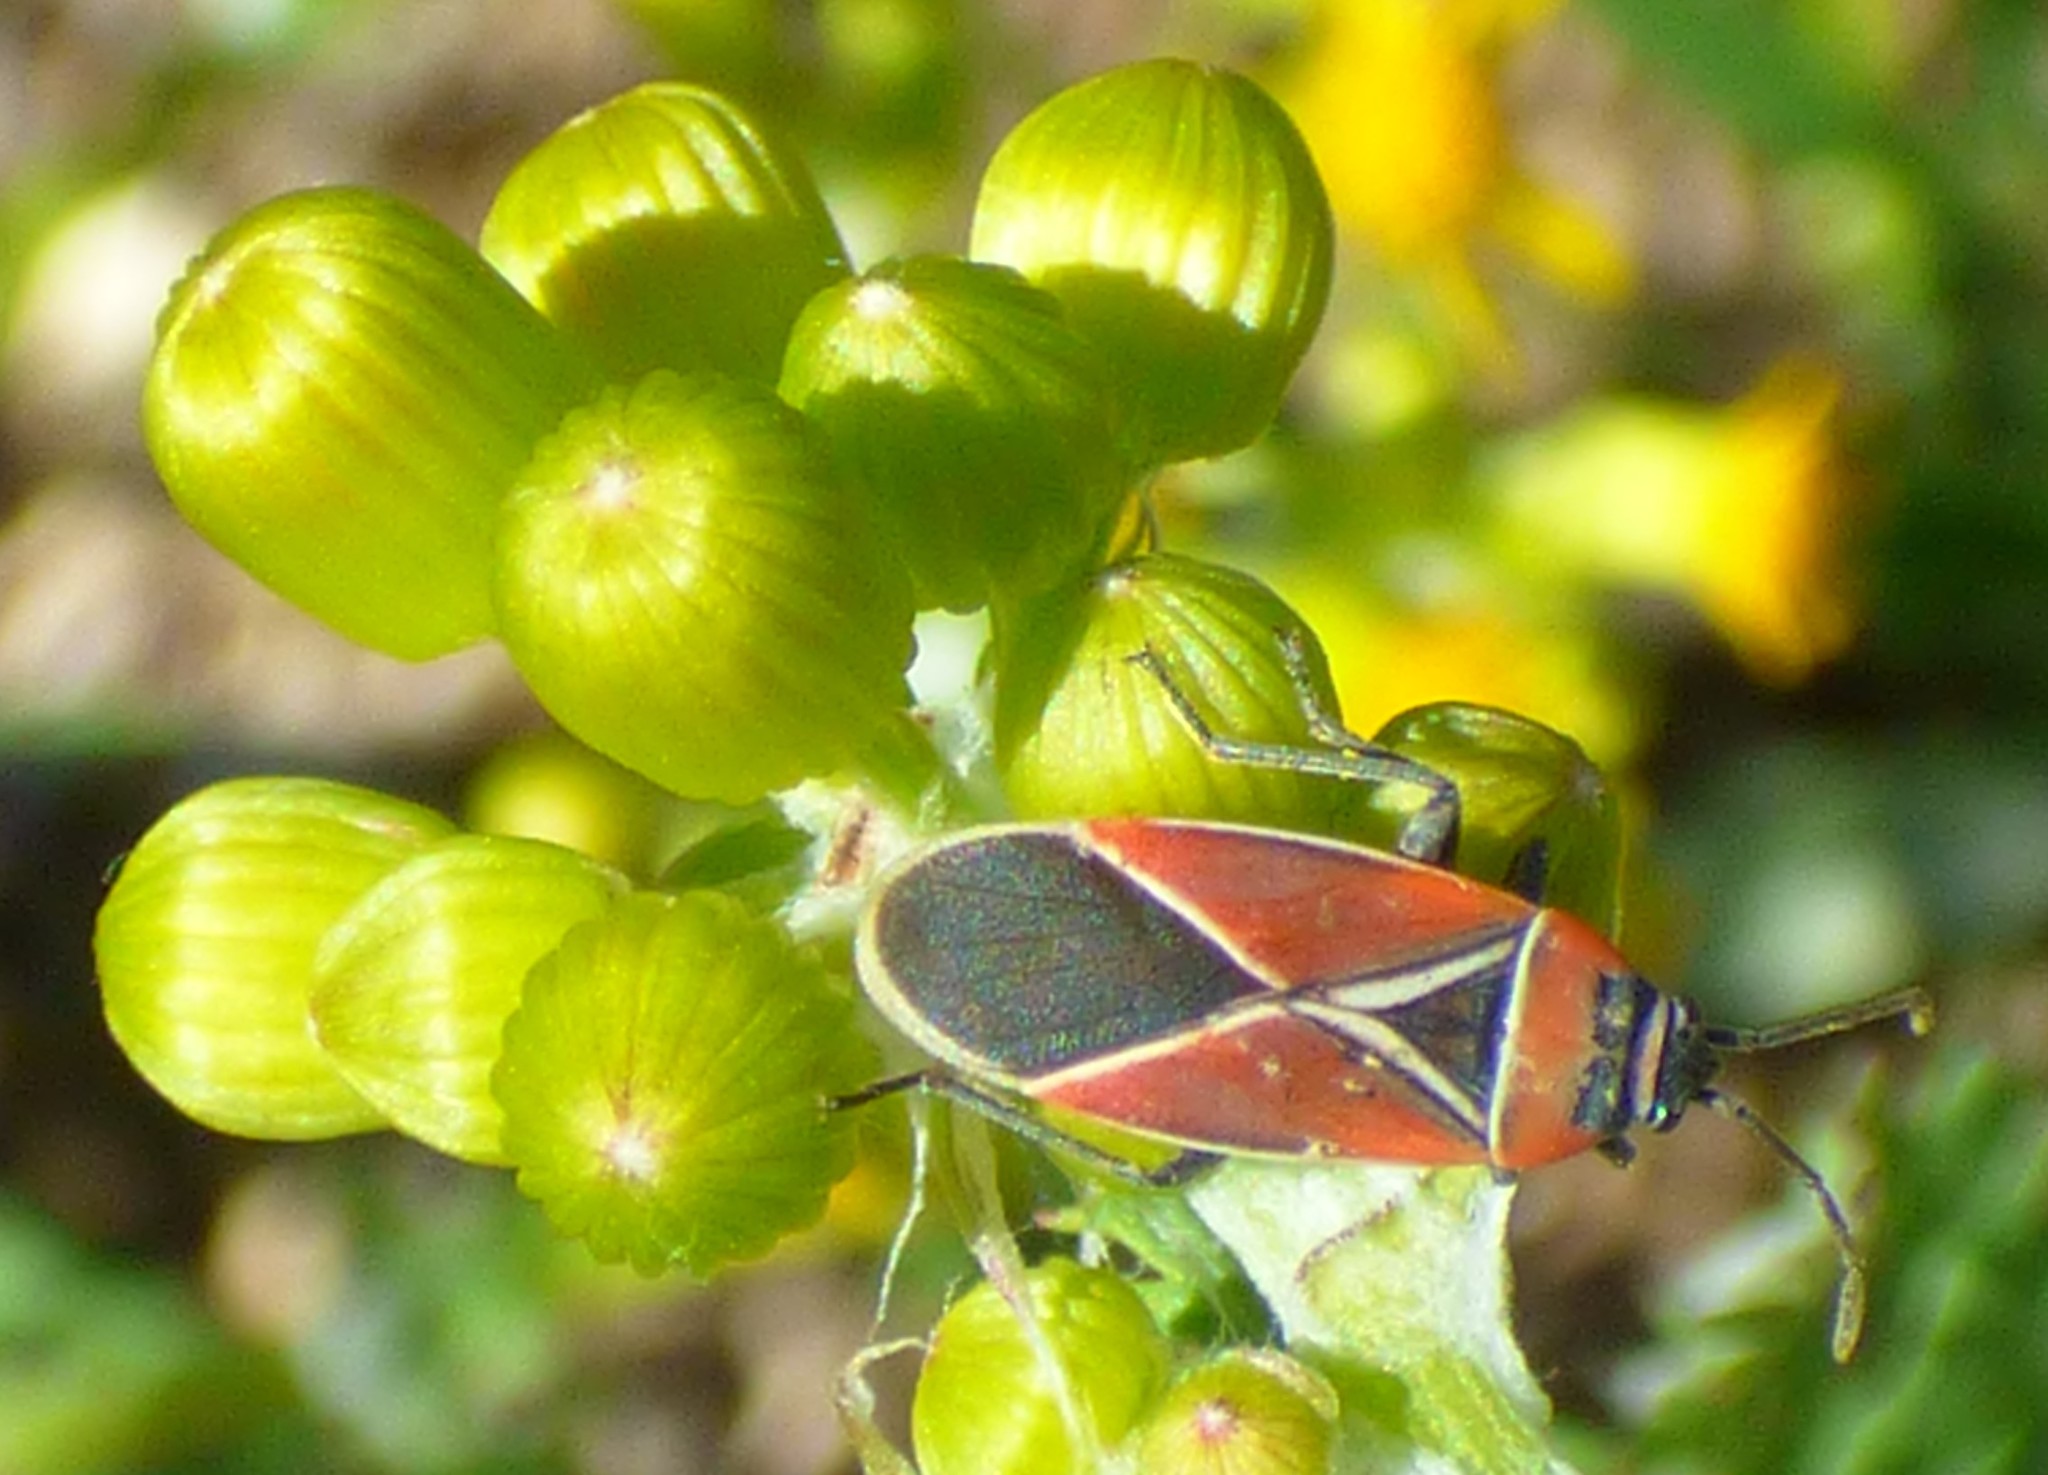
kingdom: Animalia
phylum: Arthropoda
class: Insecta
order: Hemiptera
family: Lygaeidae
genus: Neacoryphus
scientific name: Neacoryphus bicrucis
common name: Lygaeid bug
